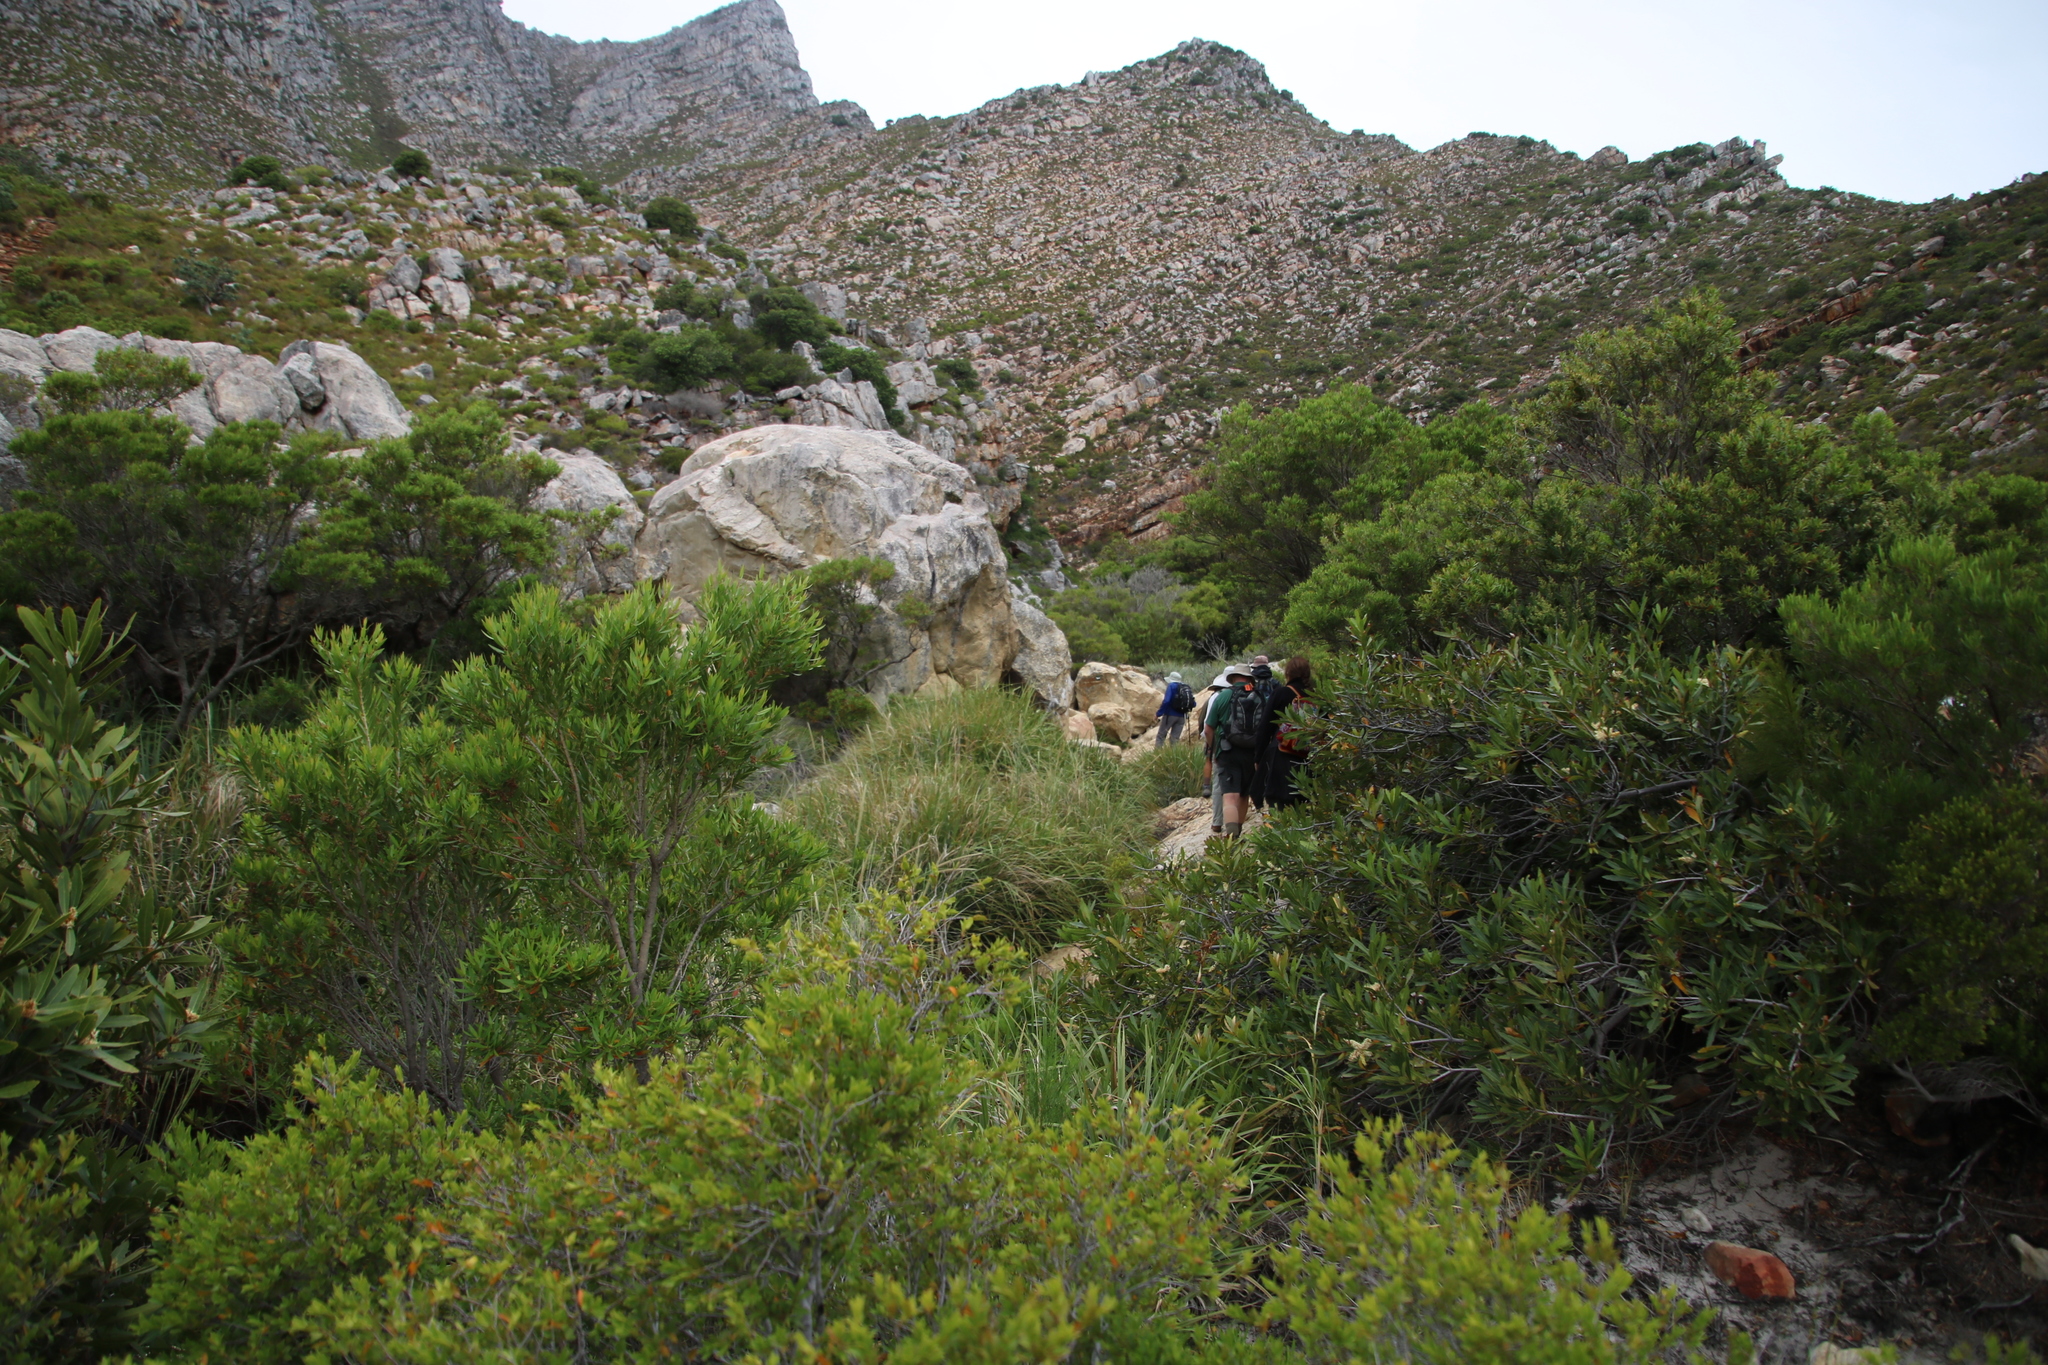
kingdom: Plantae
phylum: Tracheophyta
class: Magnoliopsida
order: Proteales
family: Proteaceae
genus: Brabejum
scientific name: Brabejum stellatifolium
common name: Wild almond
